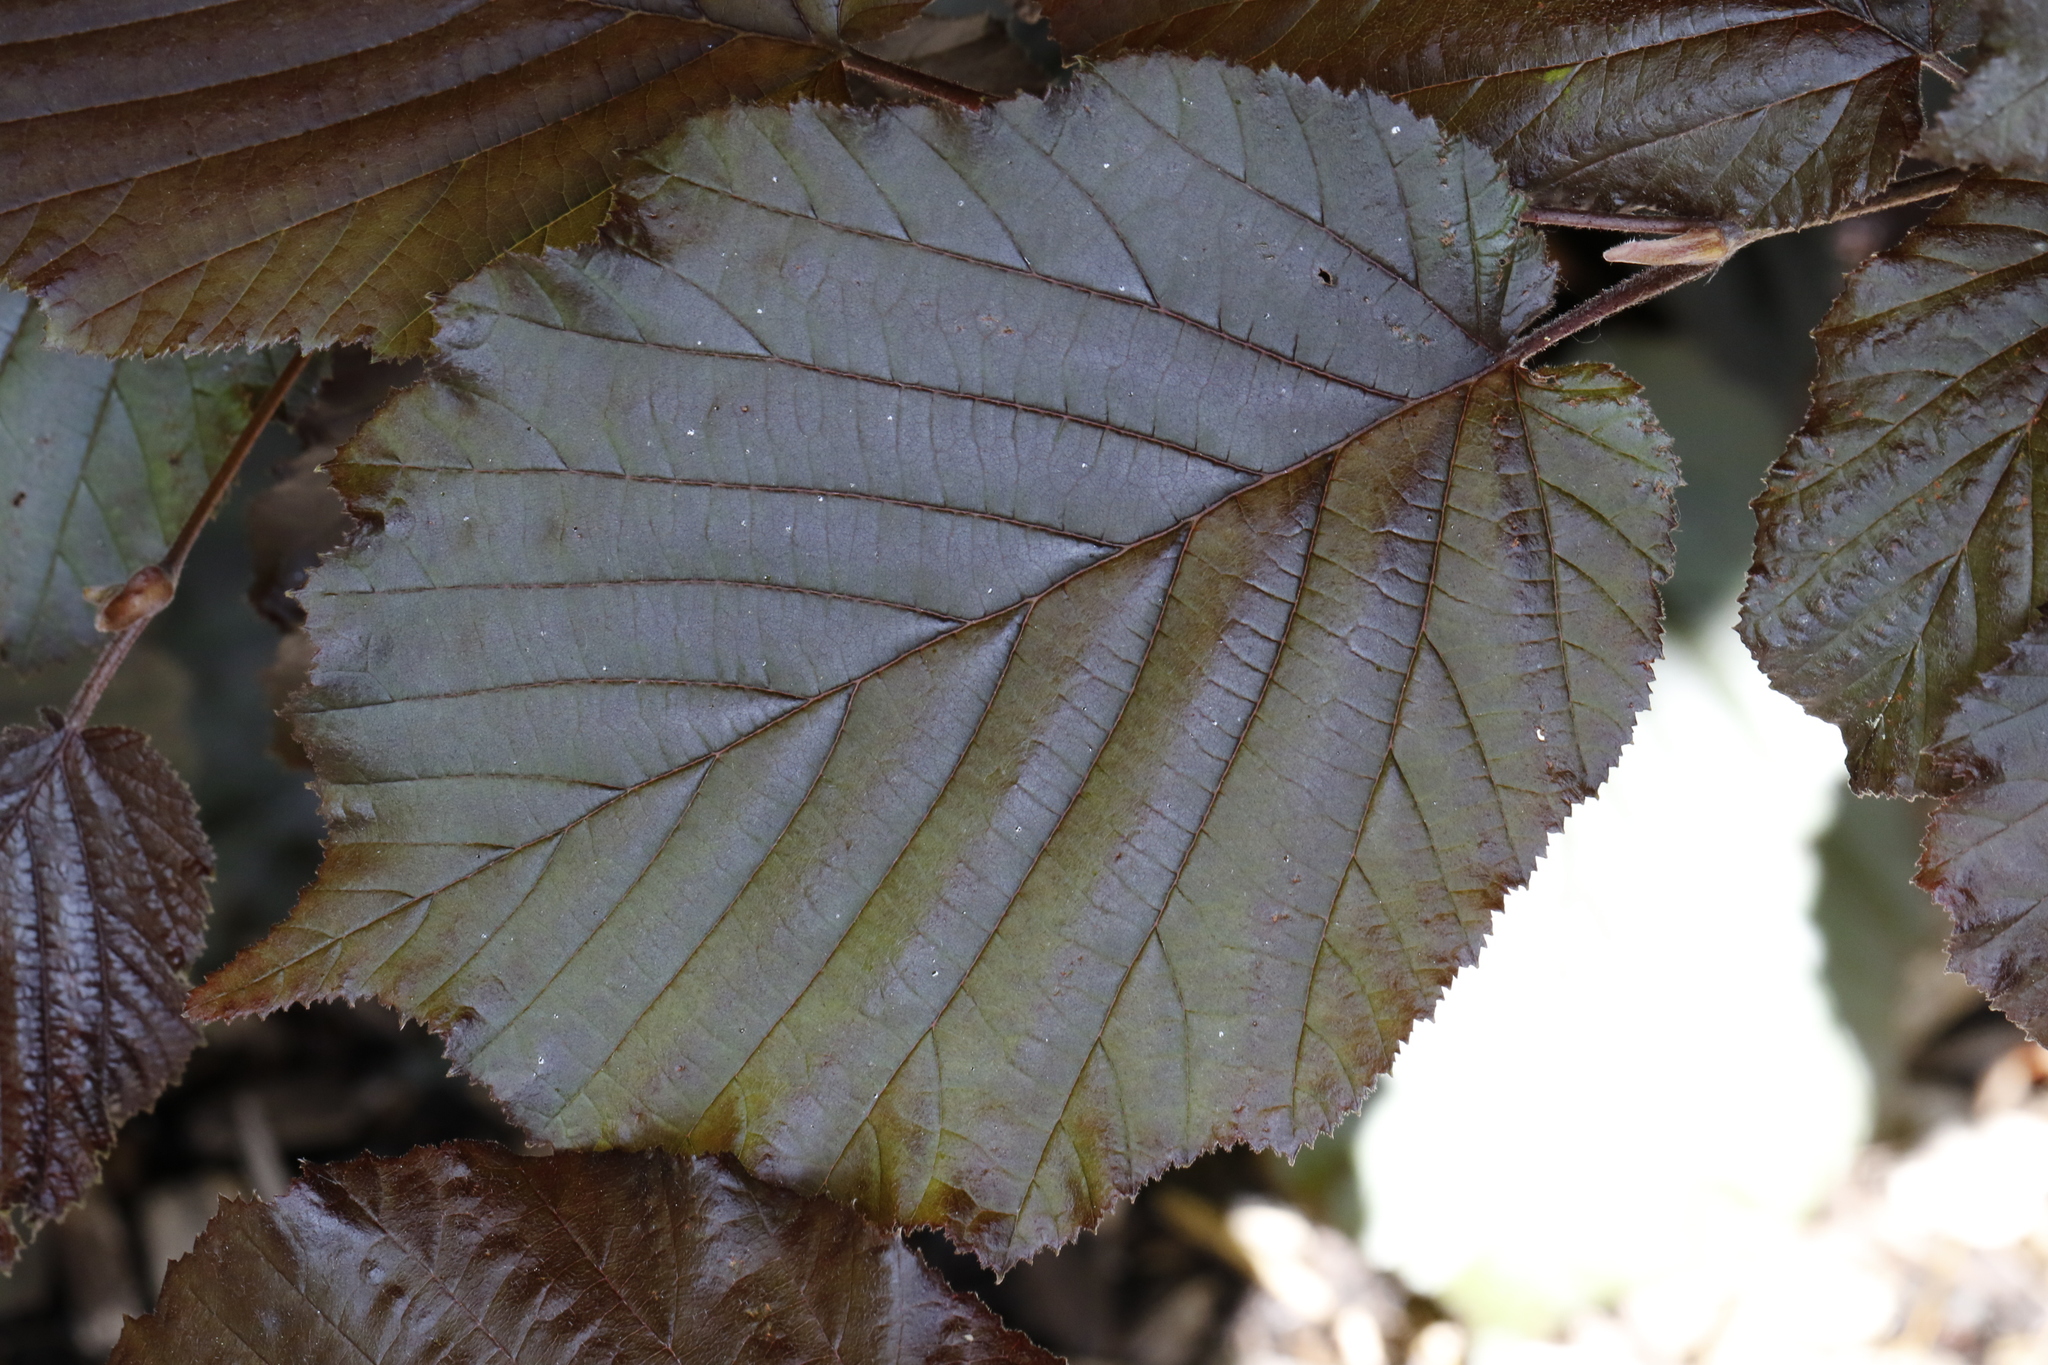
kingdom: Plantae
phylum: Tracheophyta
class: Magnoliopsida
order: Fagales
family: Betulaceae
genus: Corylus
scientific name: Corylus avellana
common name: European hazel
